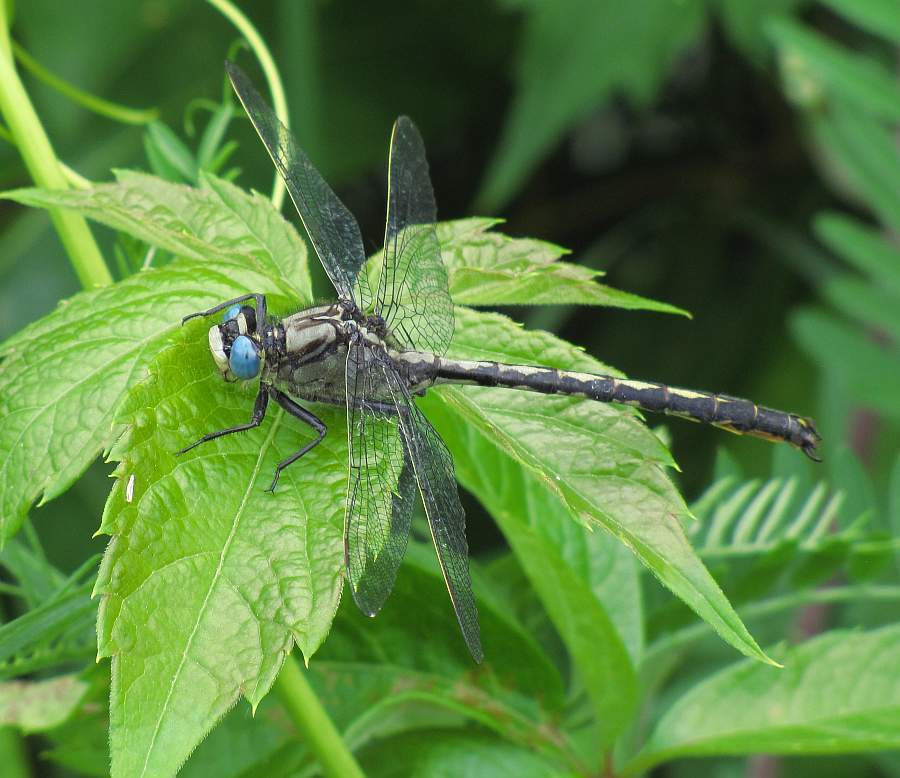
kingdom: Animalia
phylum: Arthropoda
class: Insecta
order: Odonata
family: Gomphidae
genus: Arigomphus
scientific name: Arigomphus cornutus
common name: Horned clubtail
